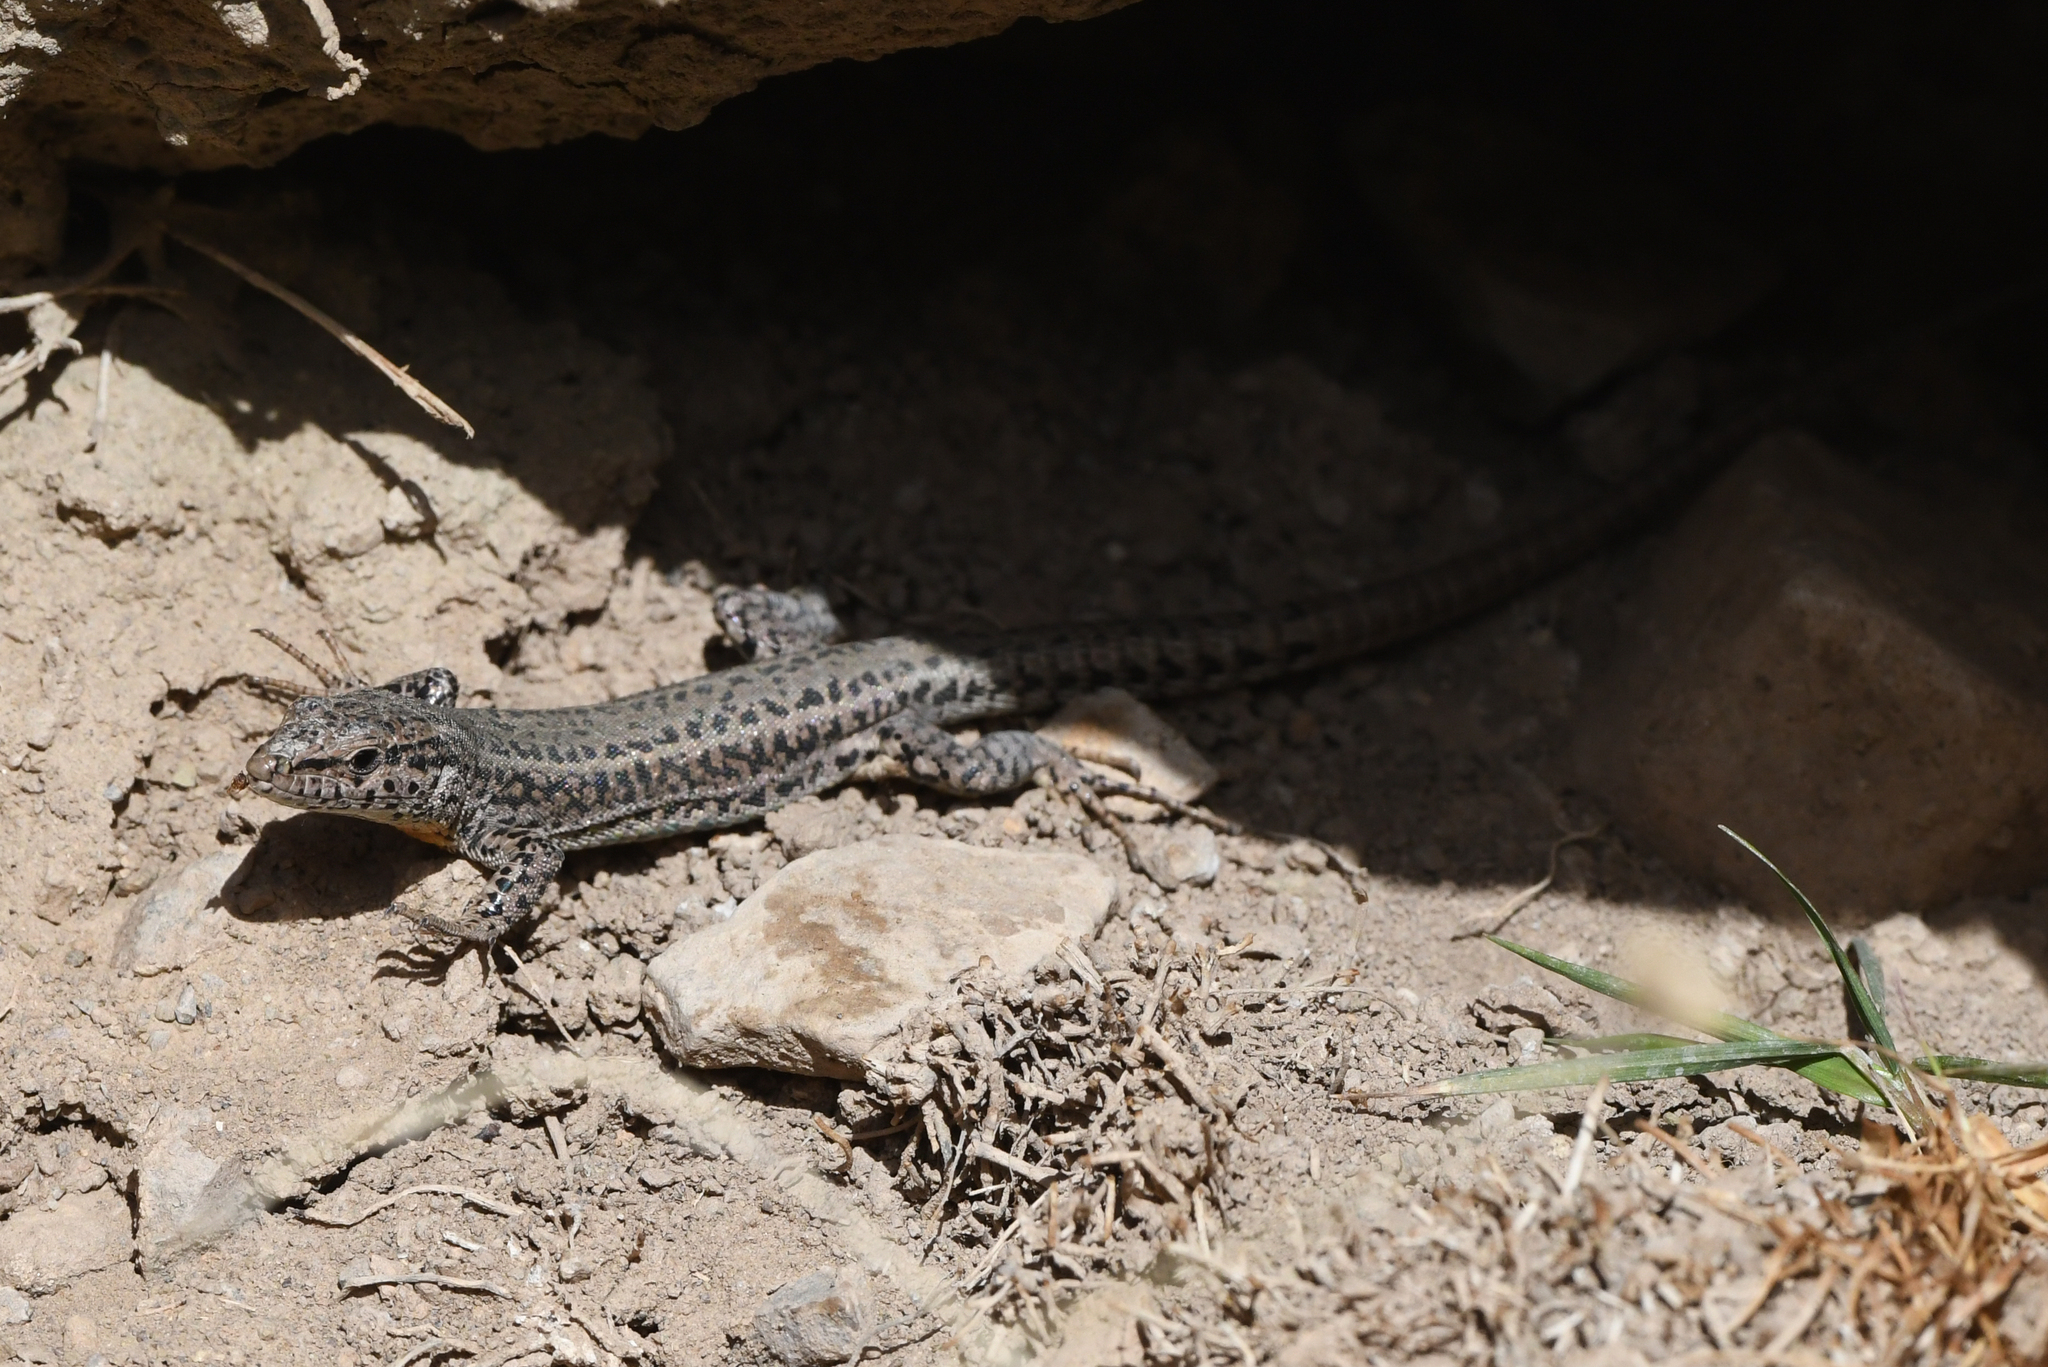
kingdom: Animalia
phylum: Chordata
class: Squamata
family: Lacertidae
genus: Podarcis
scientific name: Podarcis vaucheri
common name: Vaucher's wall lizard
